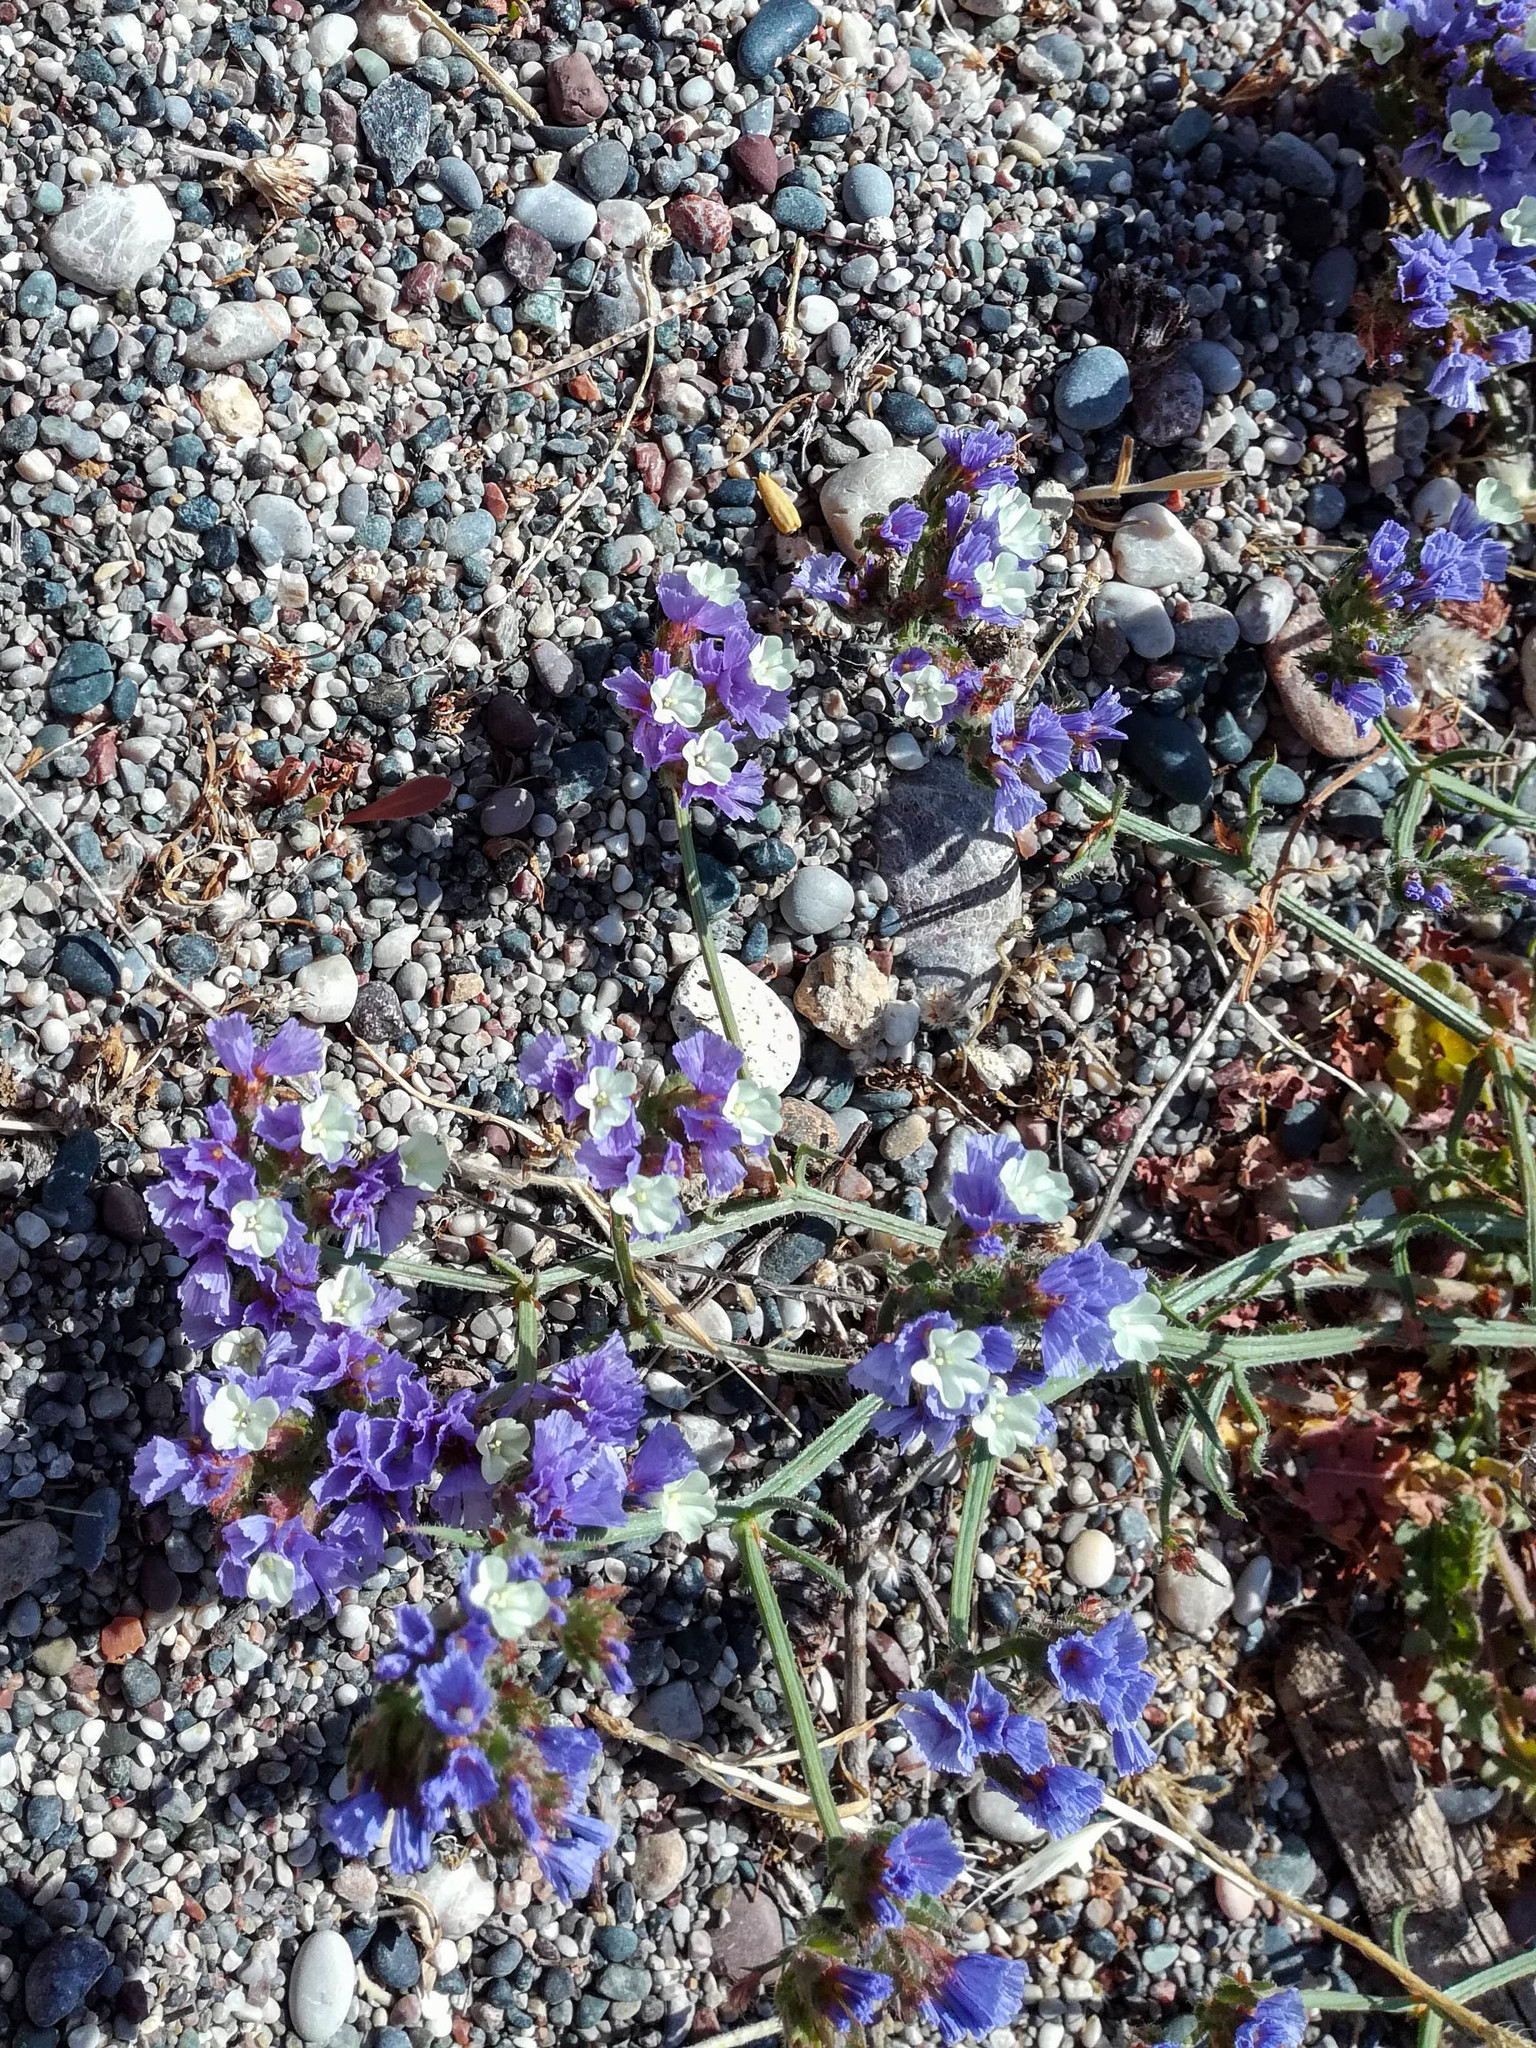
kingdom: Plantae
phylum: Tracheophyta
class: Magnoliopsida
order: Caryophyllales
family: Plumbaginaceae
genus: Limonium
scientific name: Limonium sinuatum
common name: Statice
